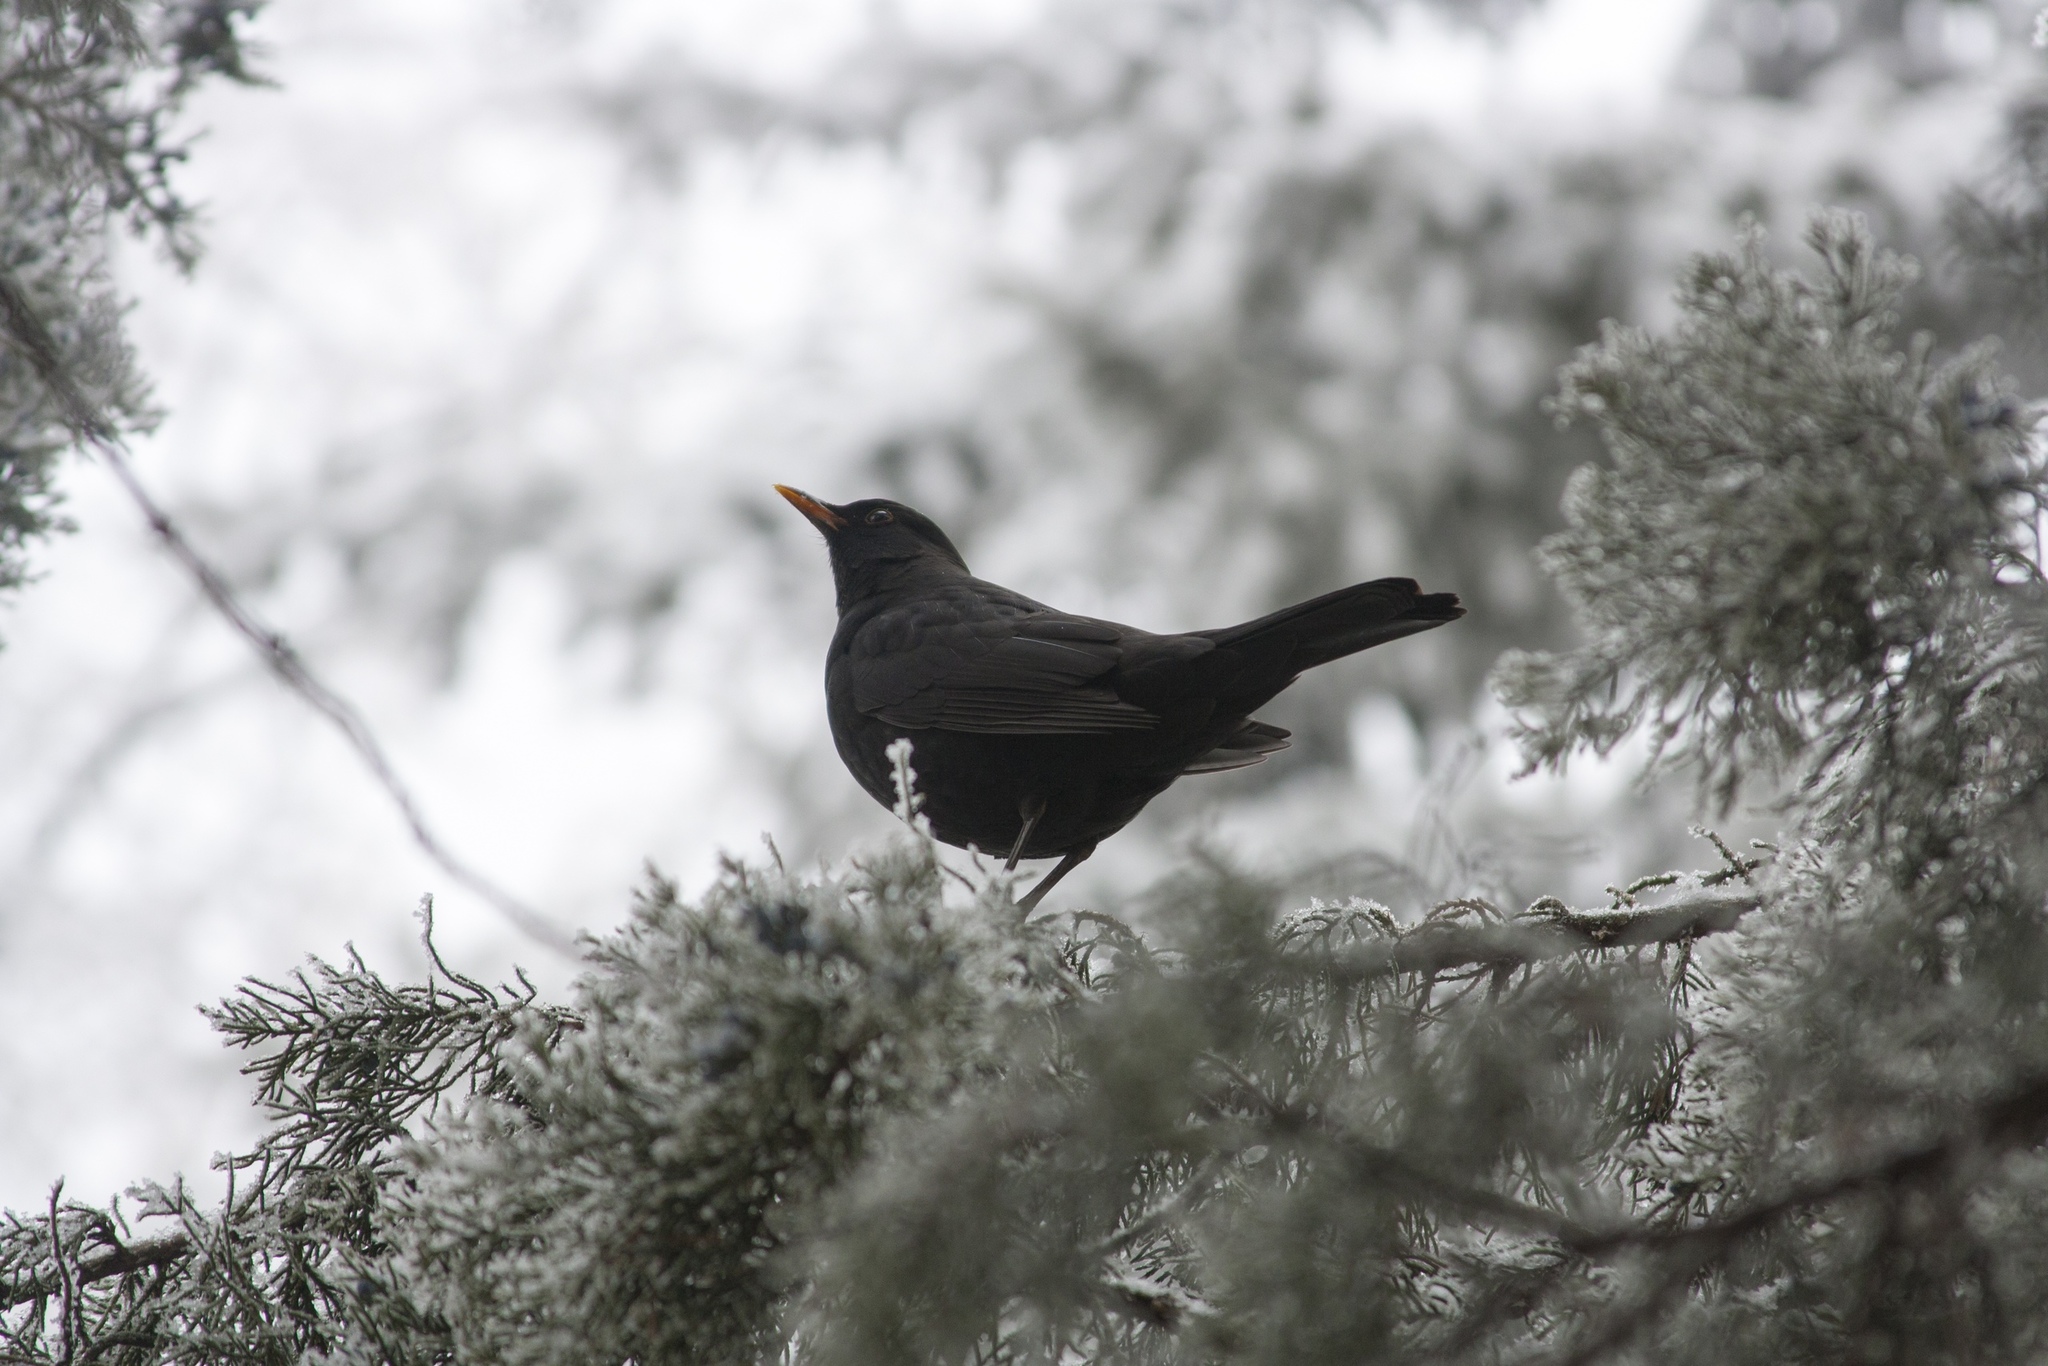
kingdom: Animalia
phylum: Chordata
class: Aves
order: Passeriformes
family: Turdidae
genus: Turdus
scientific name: Turdus merula
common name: Common blackbird
